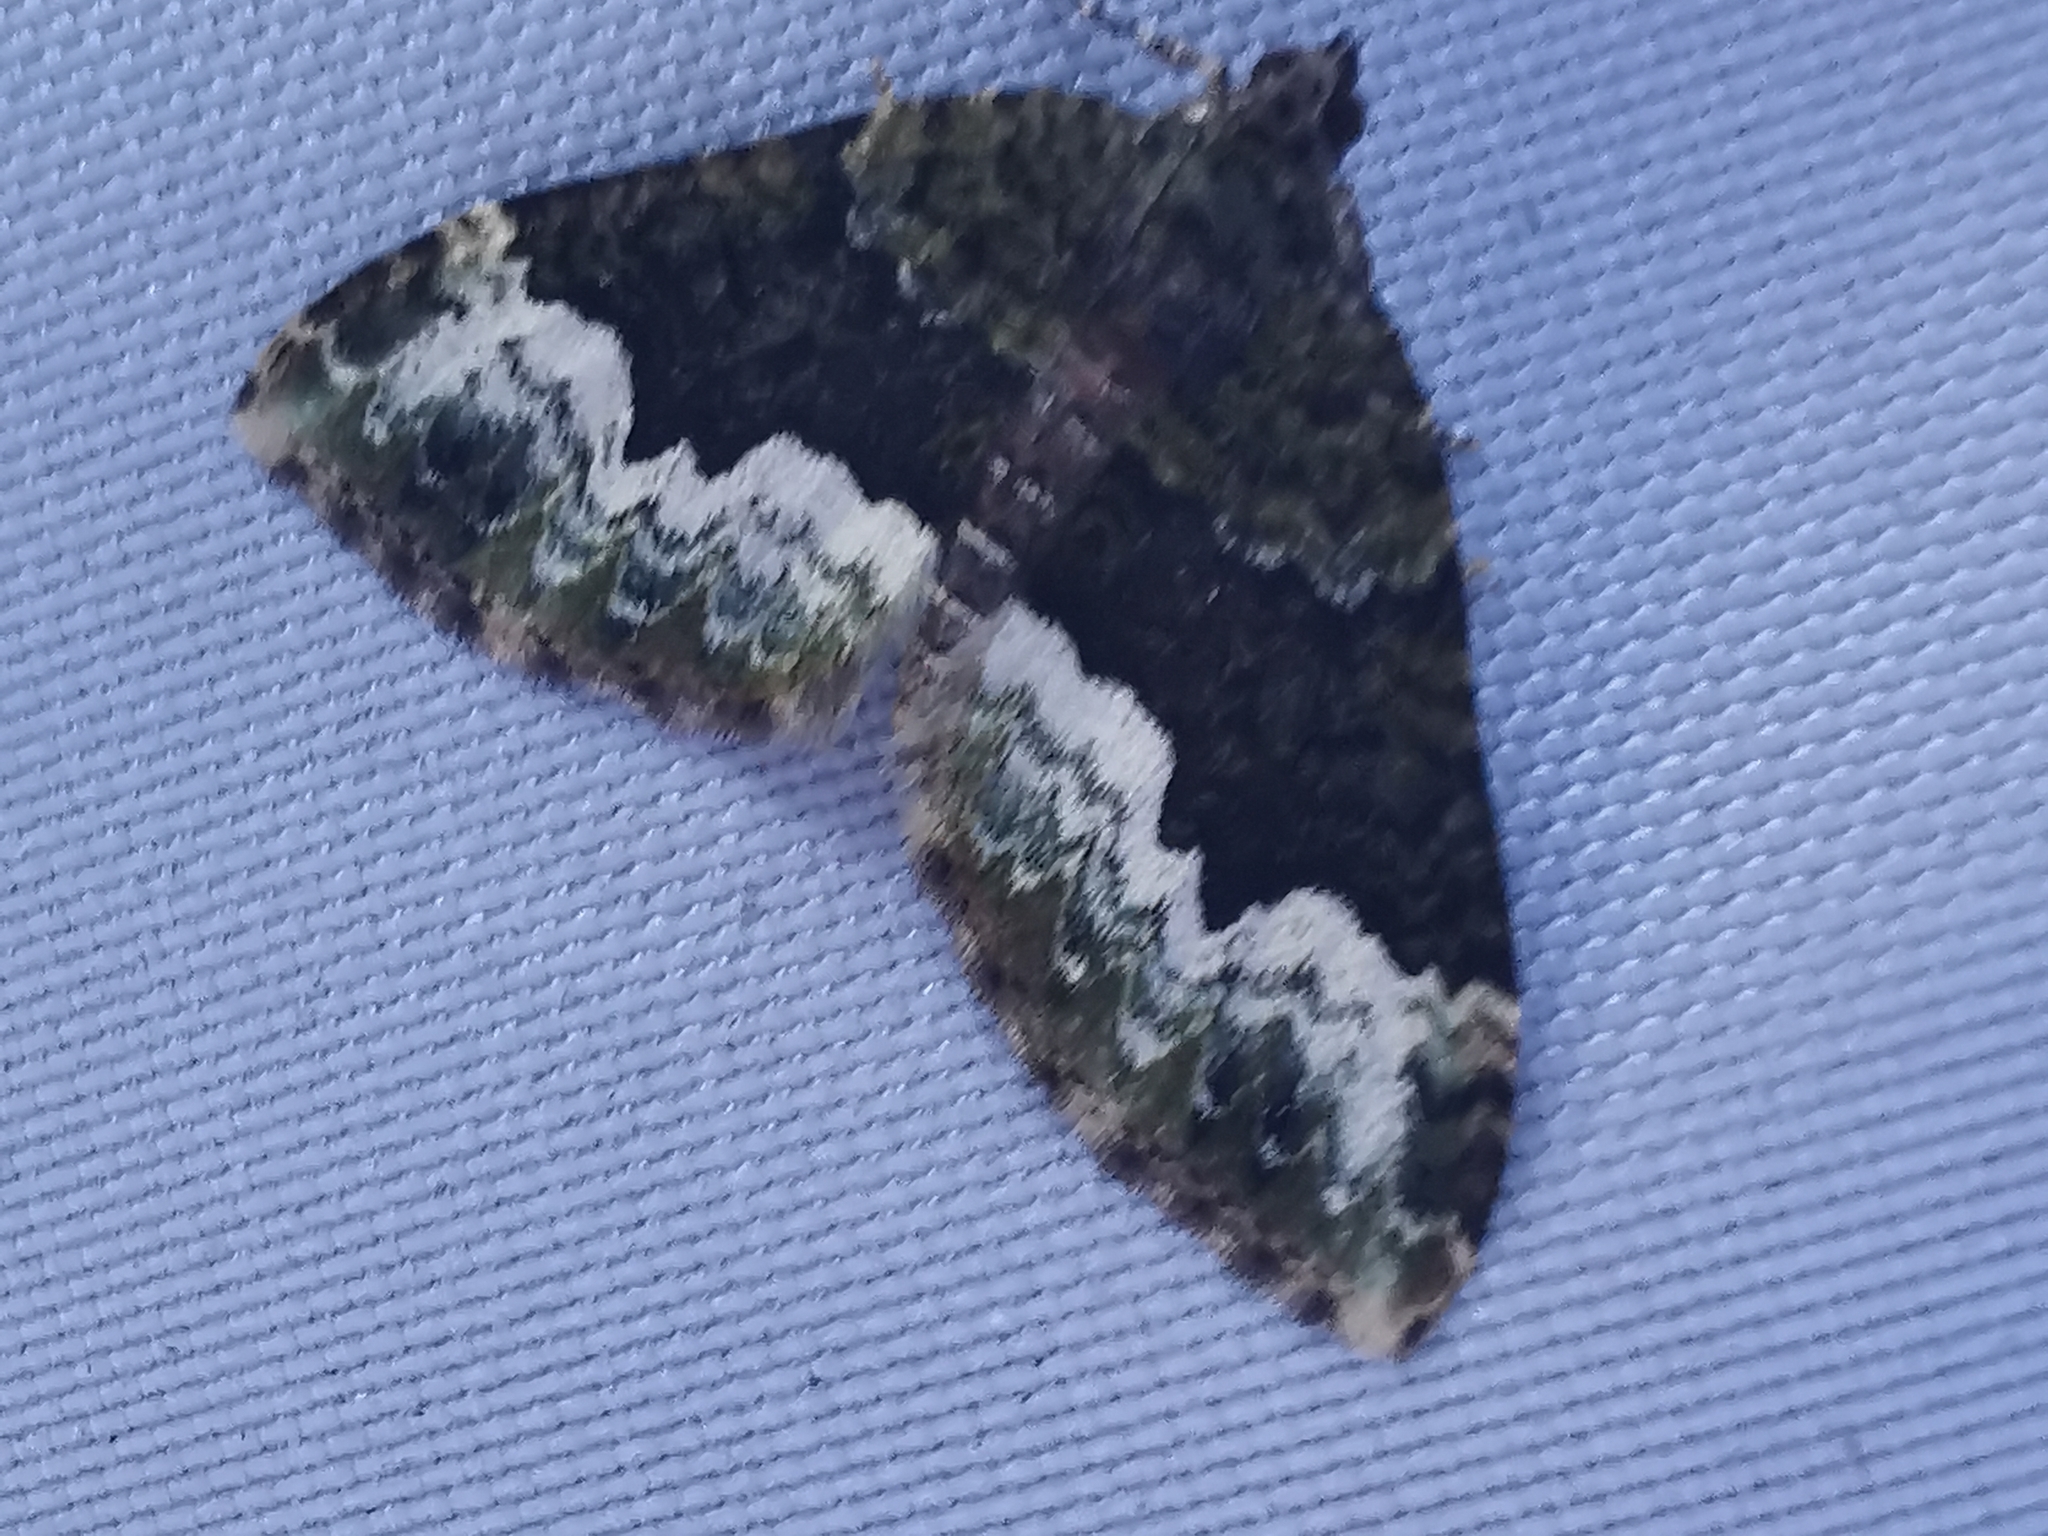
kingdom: Animalia
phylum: Arthropoda
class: Insecta
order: Lepidoptera
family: Geometridae
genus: Euphyia
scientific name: Euphyia biangulata
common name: Cloaked carpet
